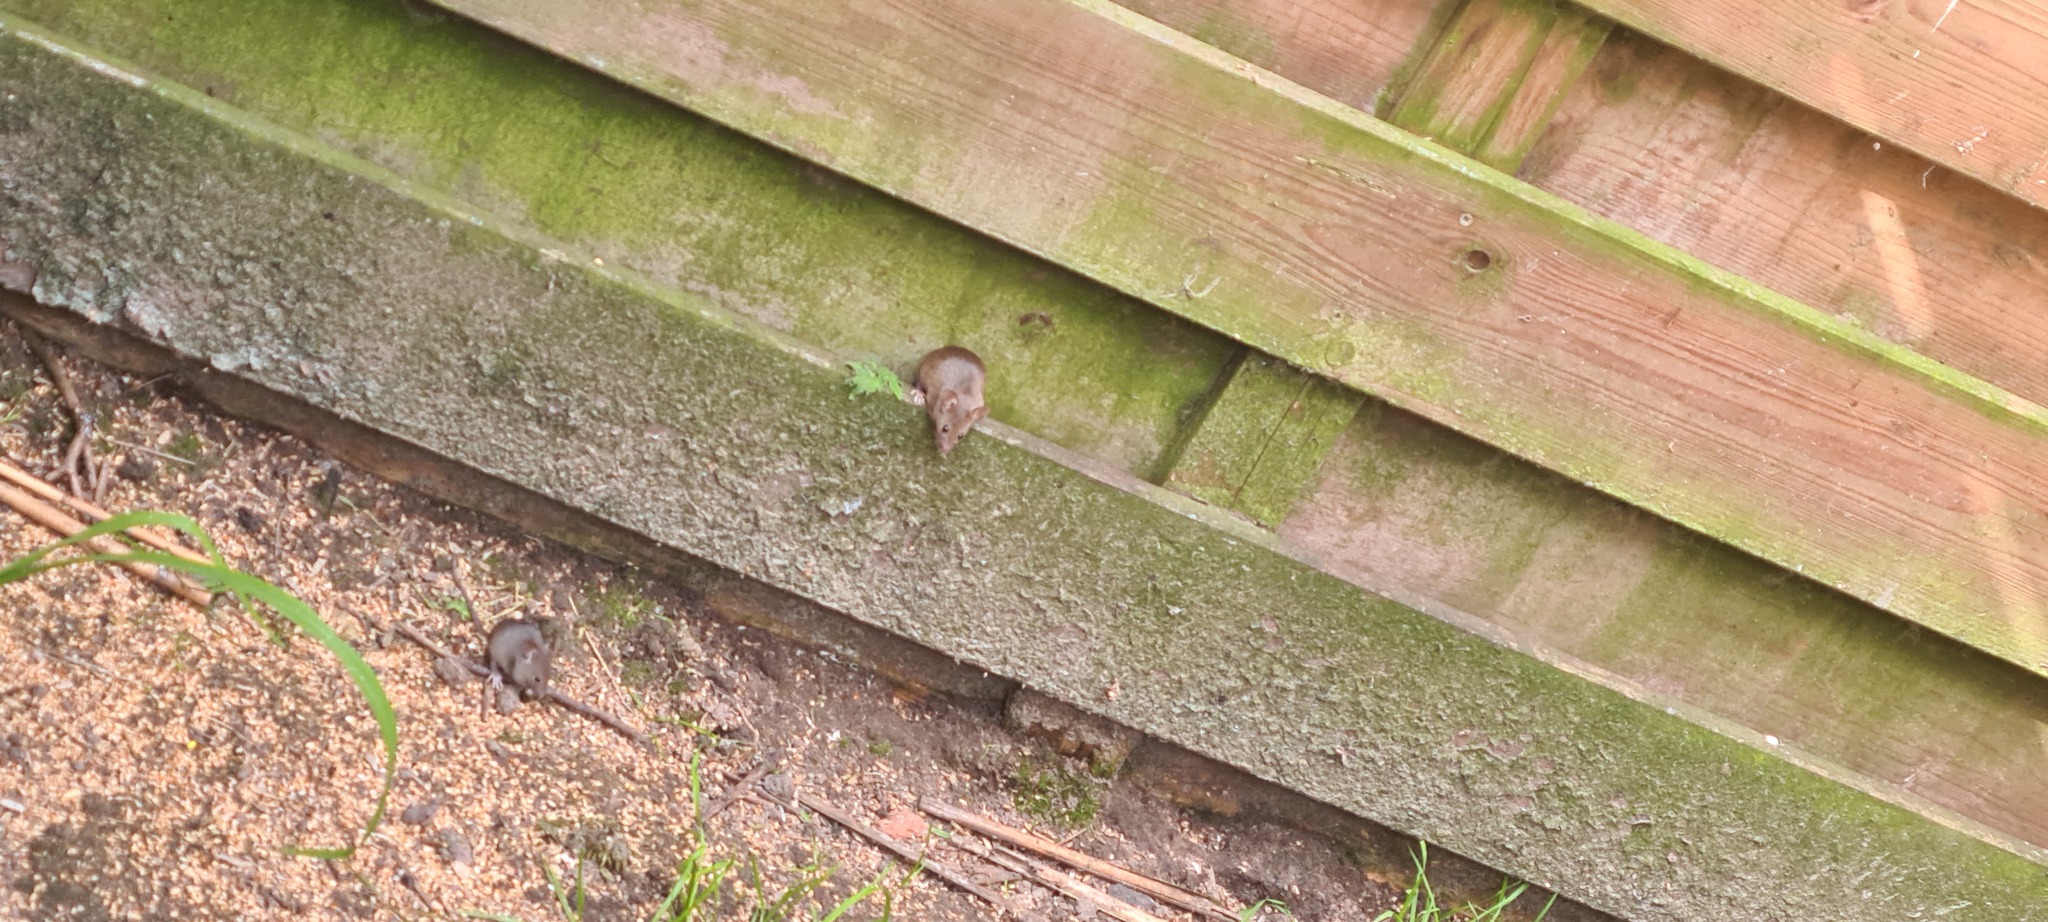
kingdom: Animalia
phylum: Chordata
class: Mammalia
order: Rodentia
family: Muridae
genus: Mus
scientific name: Mus musculus
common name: House mouse
